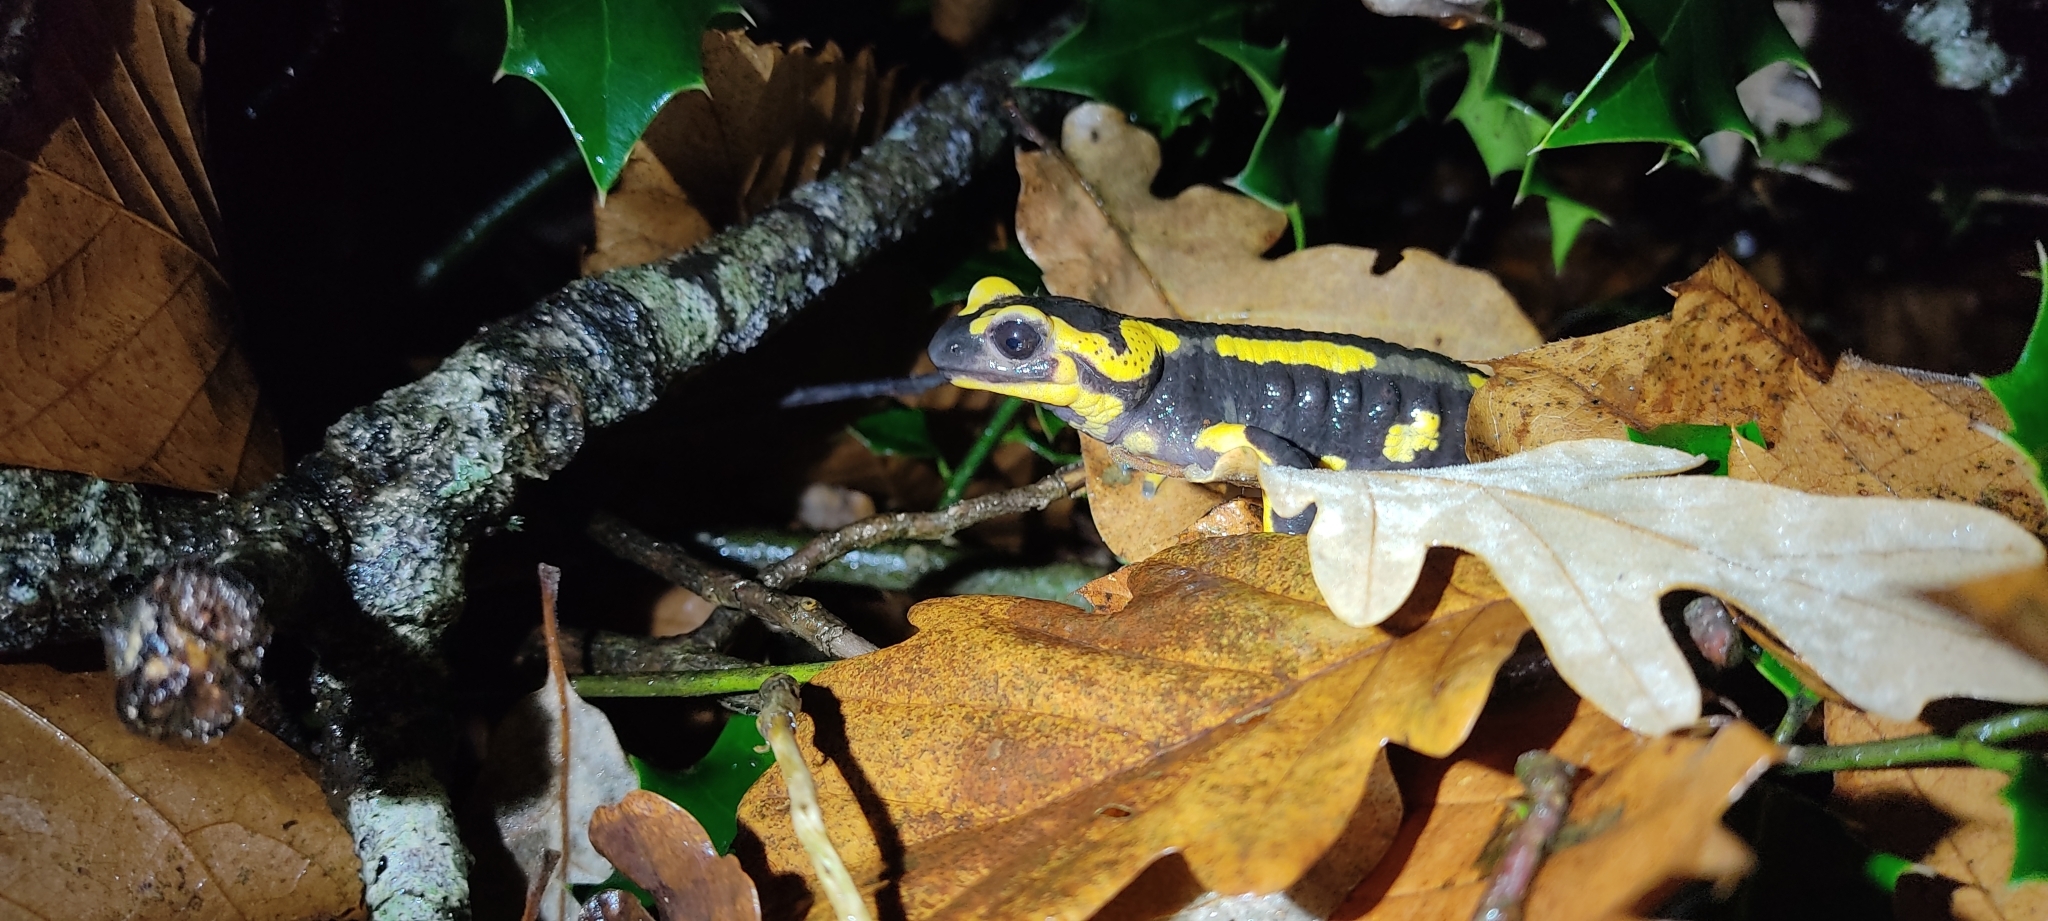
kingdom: Animalia
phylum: Chordata
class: Amphibia
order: Caudata
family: Salamandridae
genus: Salamandra
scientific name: Salamandra salamandra
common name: Fire salamander
